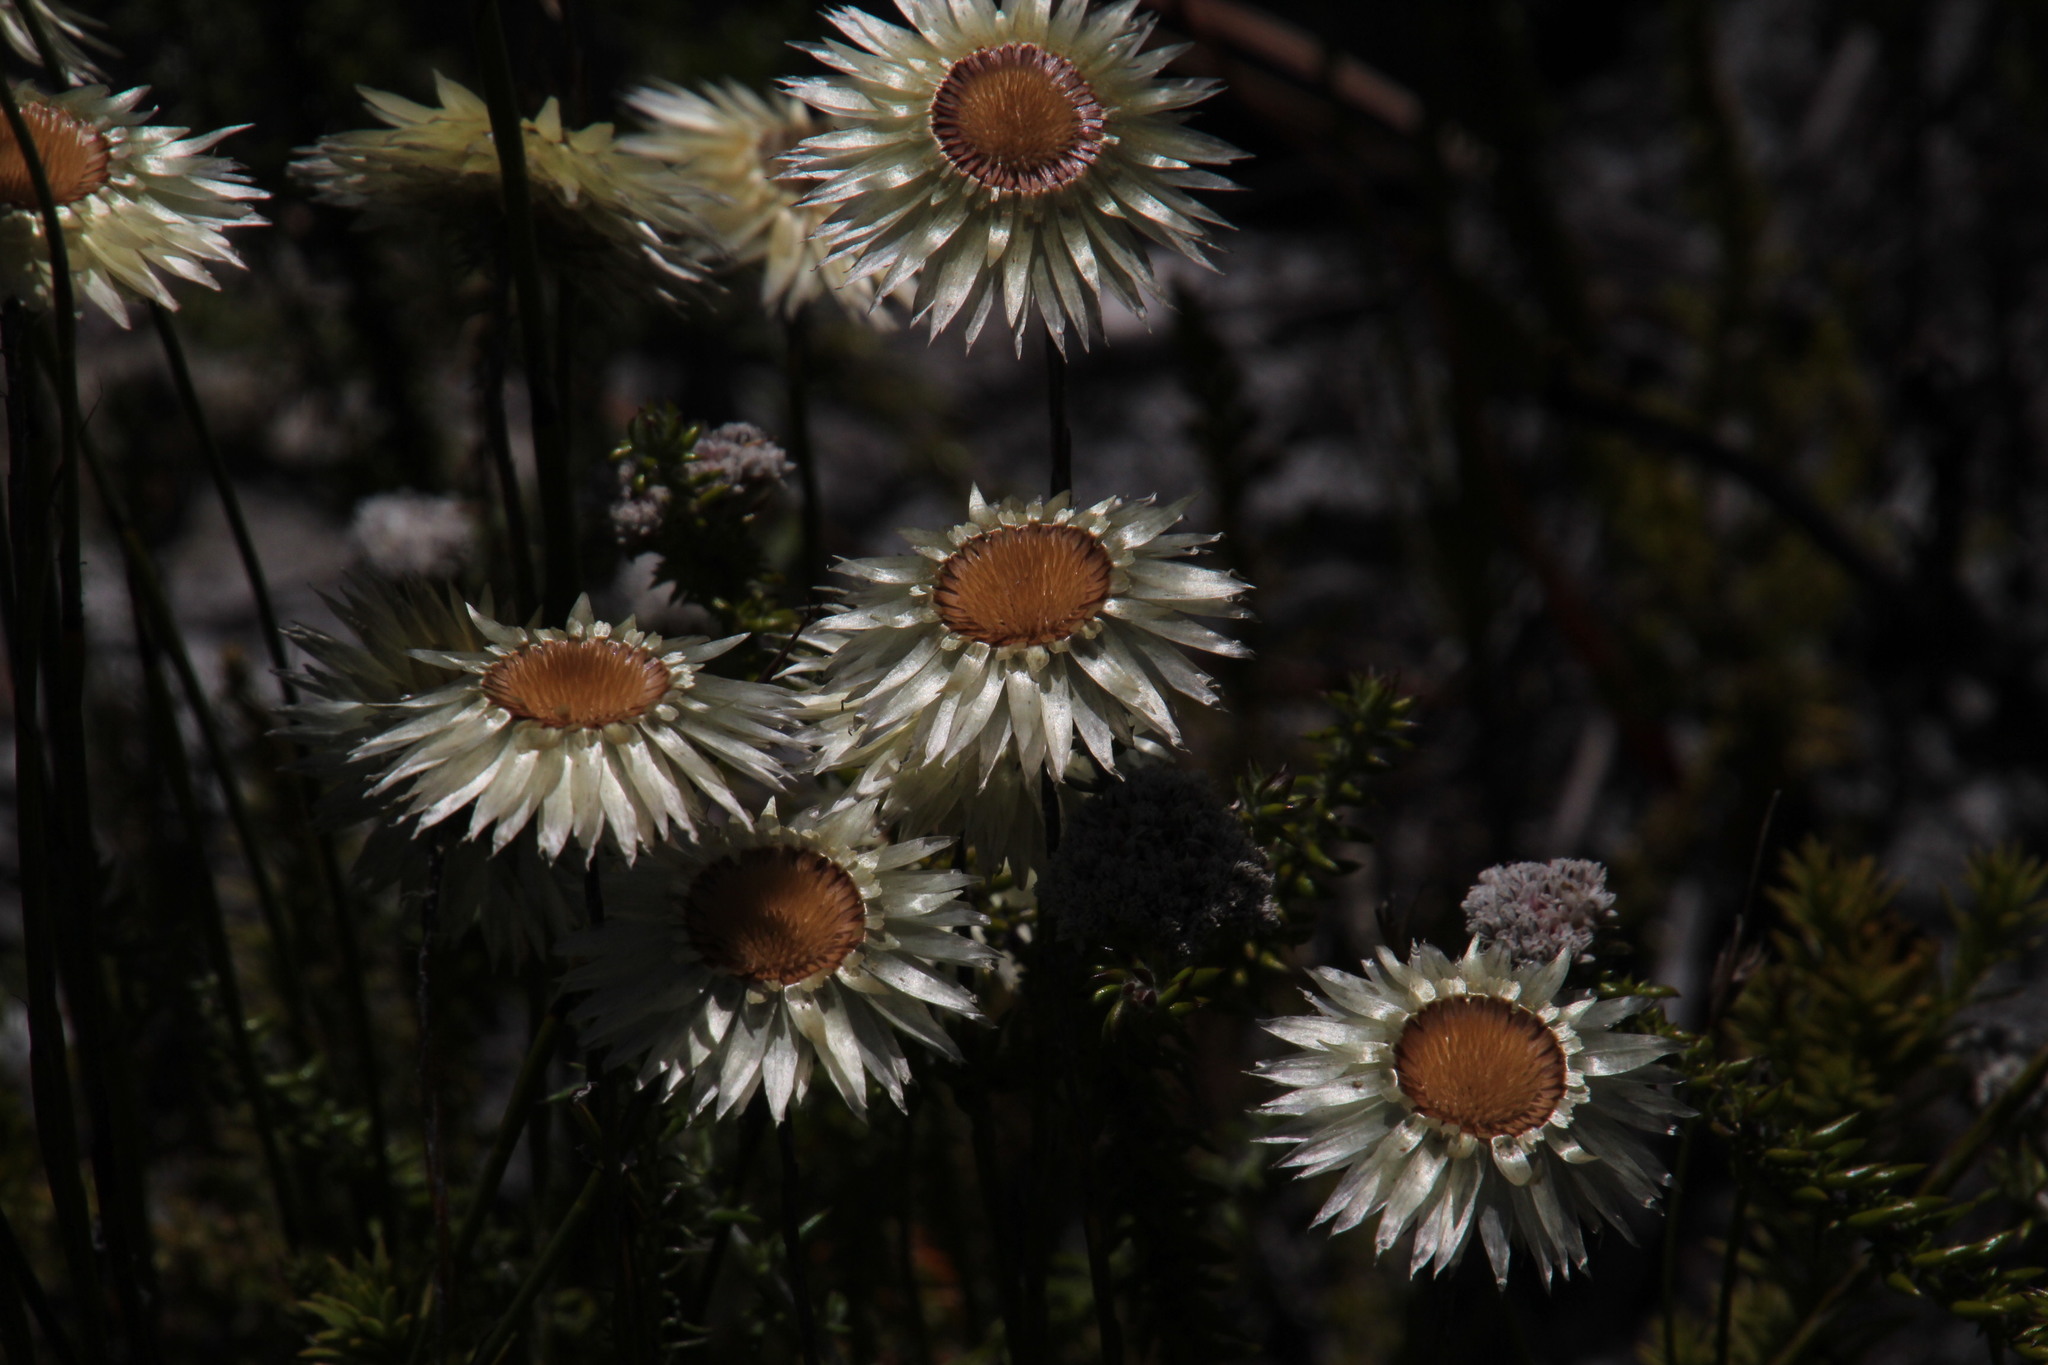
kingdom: Plantae
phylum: Tracheophyta
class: Magnoliopsida
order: Asterales
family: Asteraceae
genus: Edmondia
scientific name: Edmondia sesamoides
